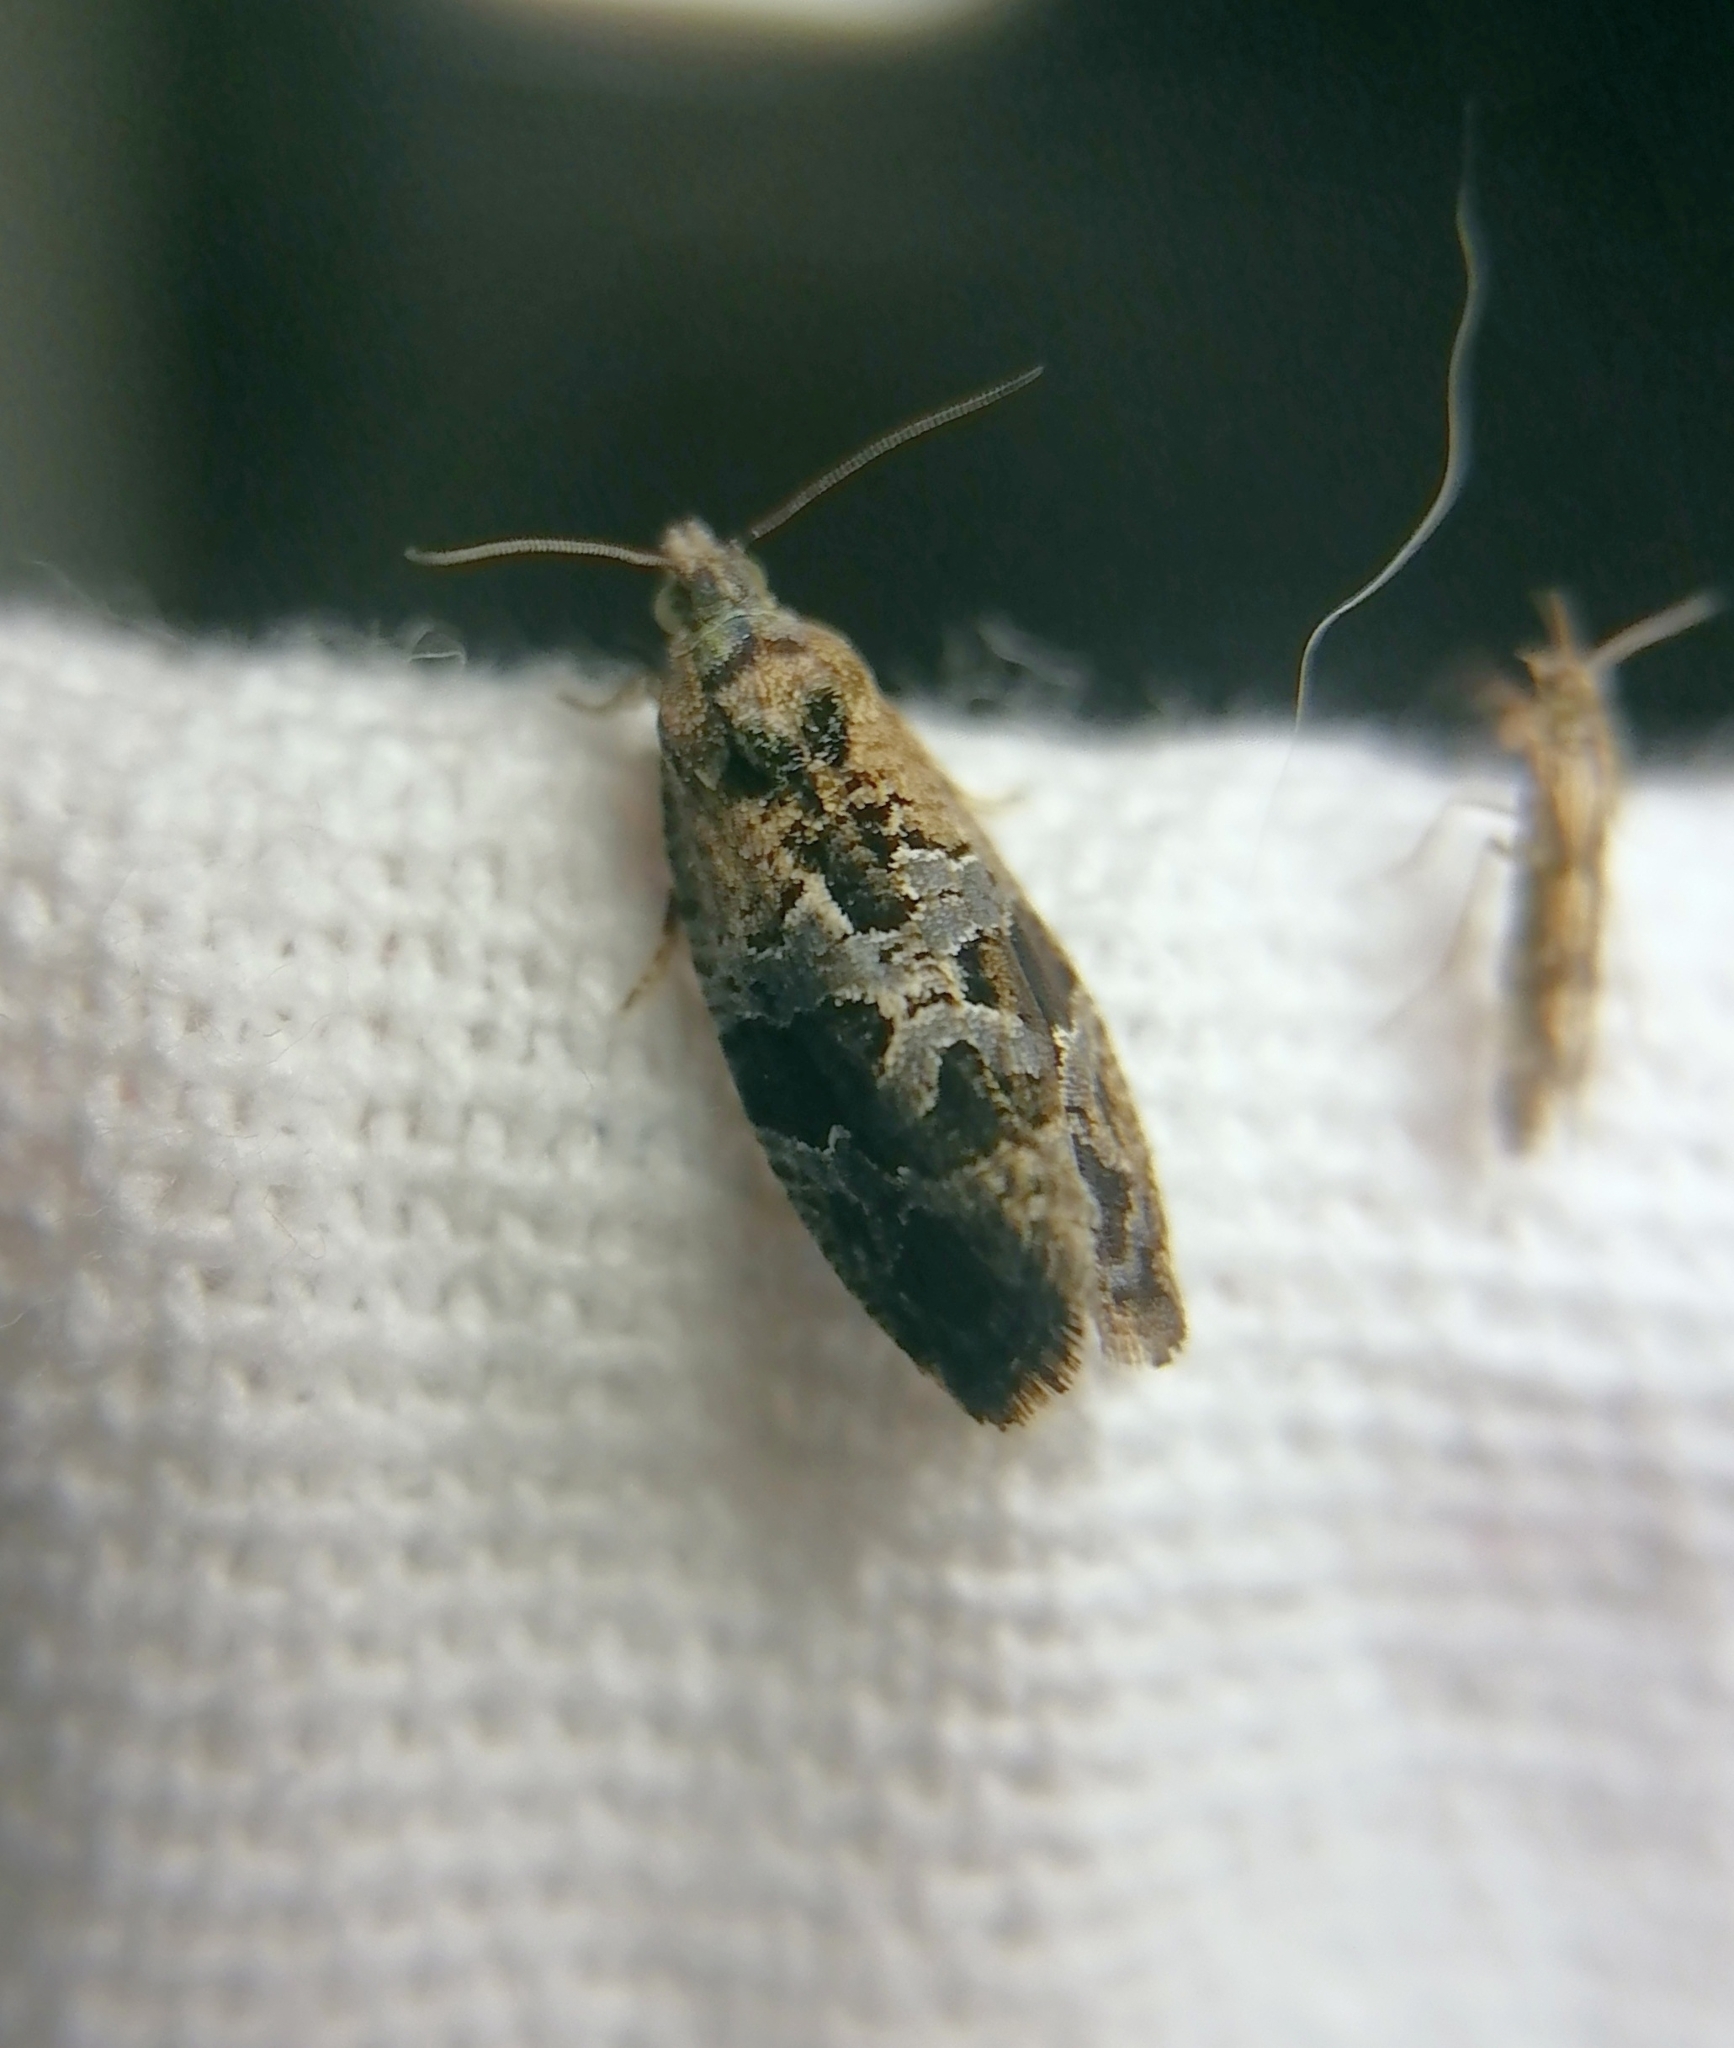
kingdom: Animalia
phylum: Arthropoda
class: Insecta
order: Lepidoptera
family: Tortricidae
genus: Eudemis
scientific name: Eudemis porphyrana
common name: Apple marble
